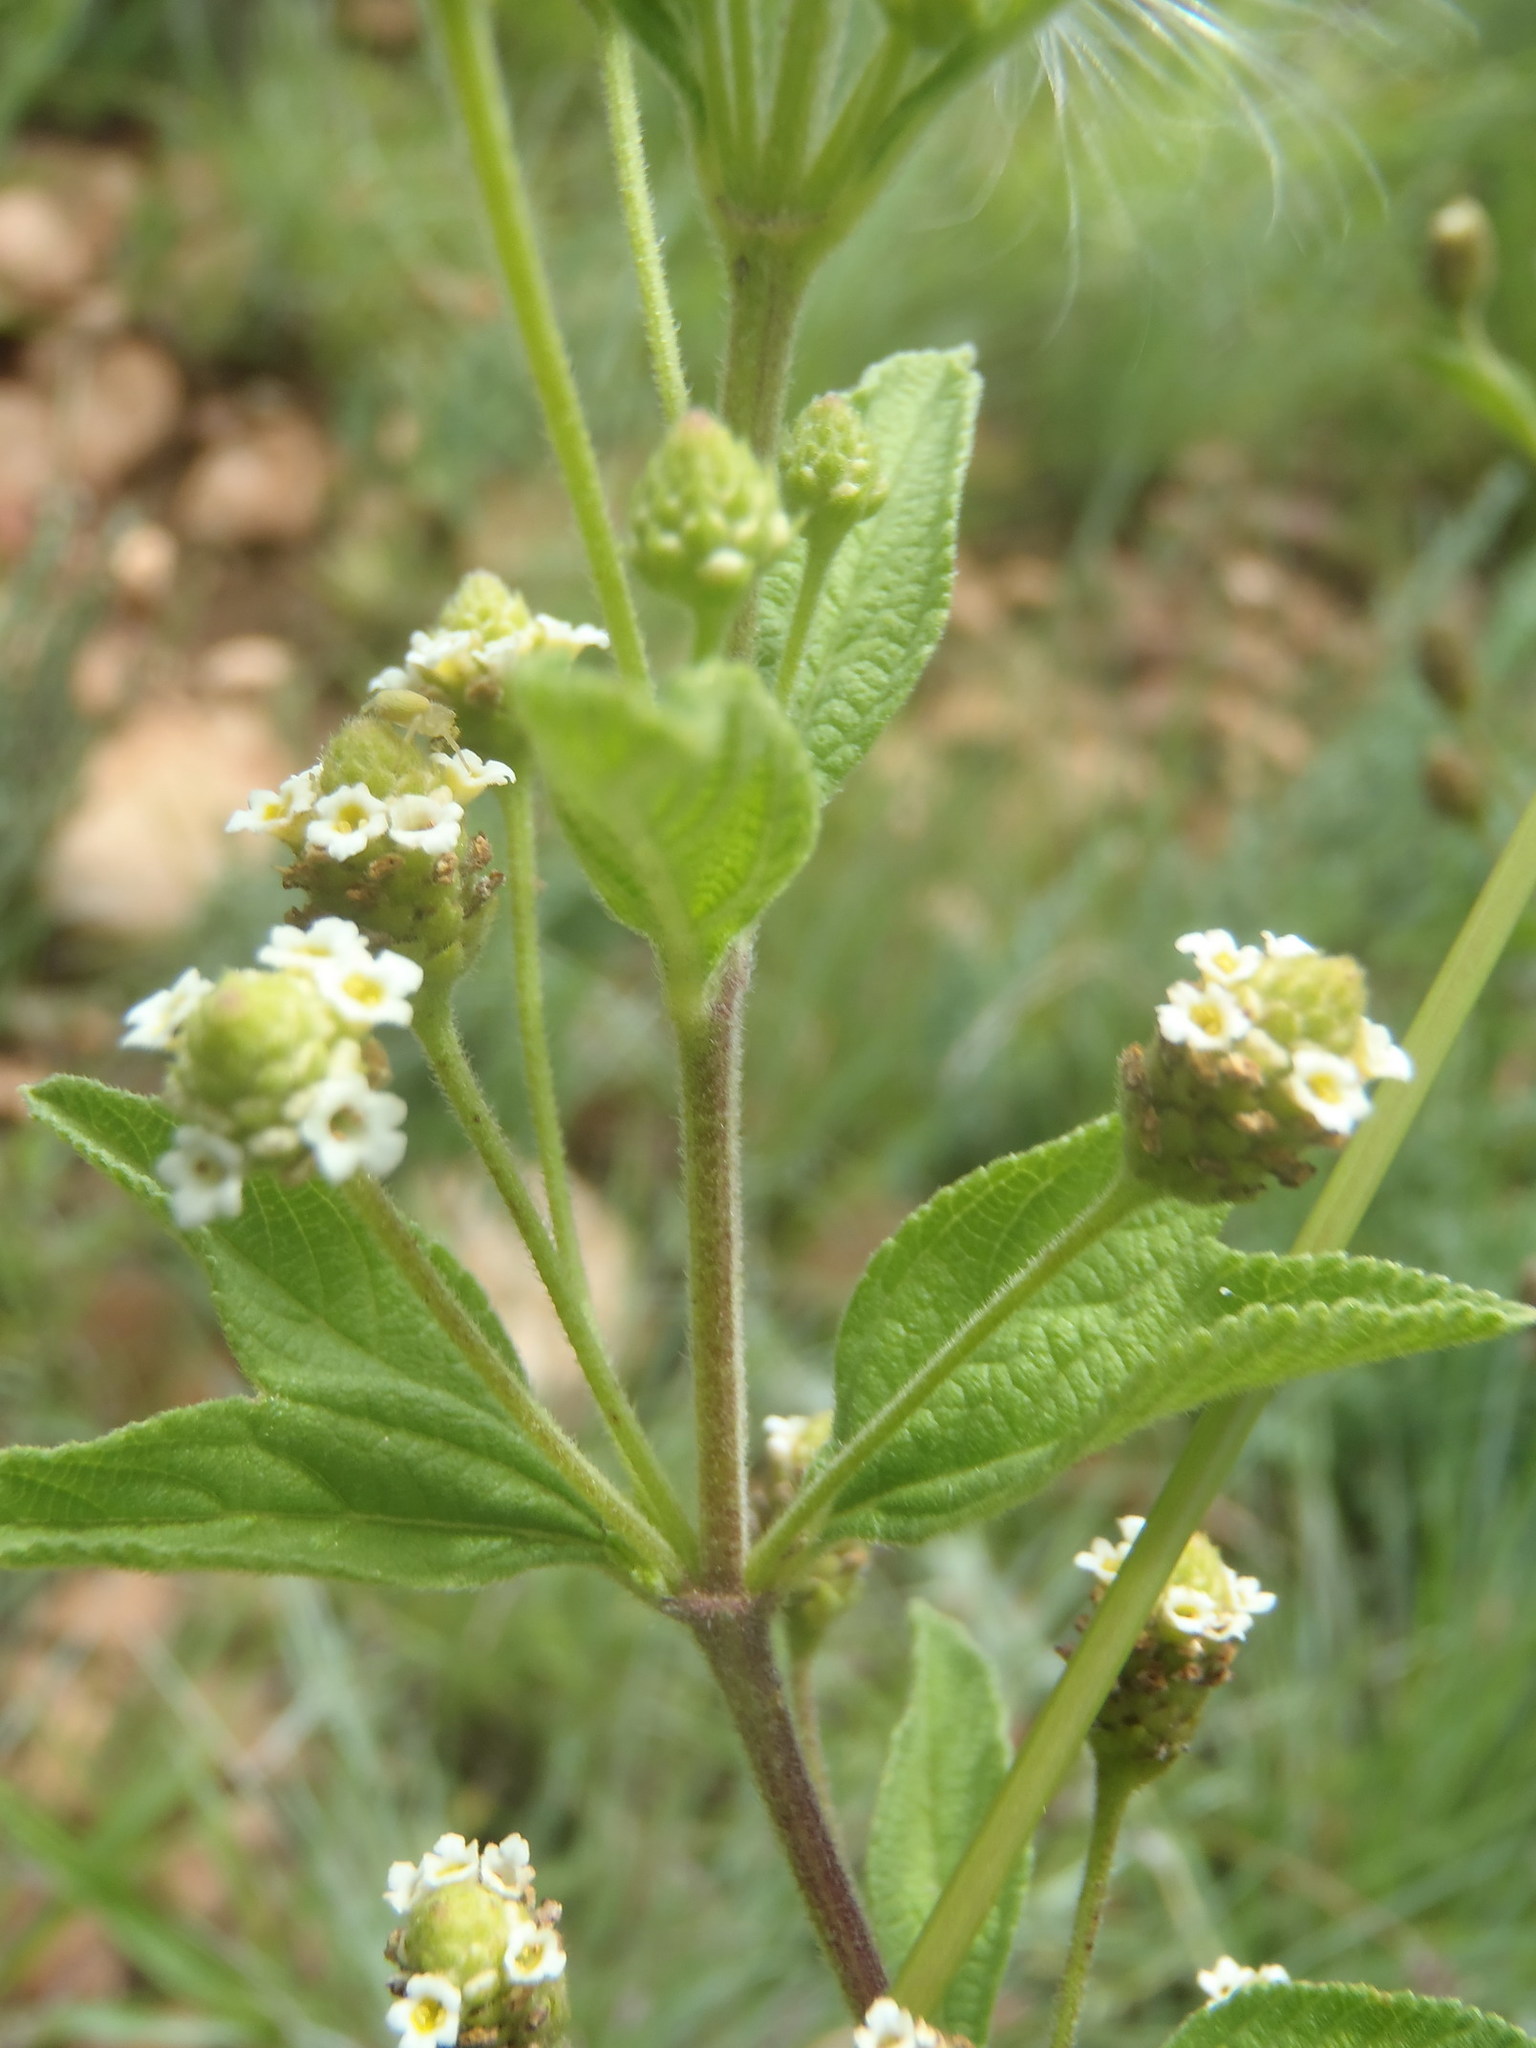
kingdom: Plantae
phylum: Tracheophyta
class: Magnoliopsida
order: Lamiales
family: Verbenaceae
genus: Lippia
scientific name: Lippia rehmannii
